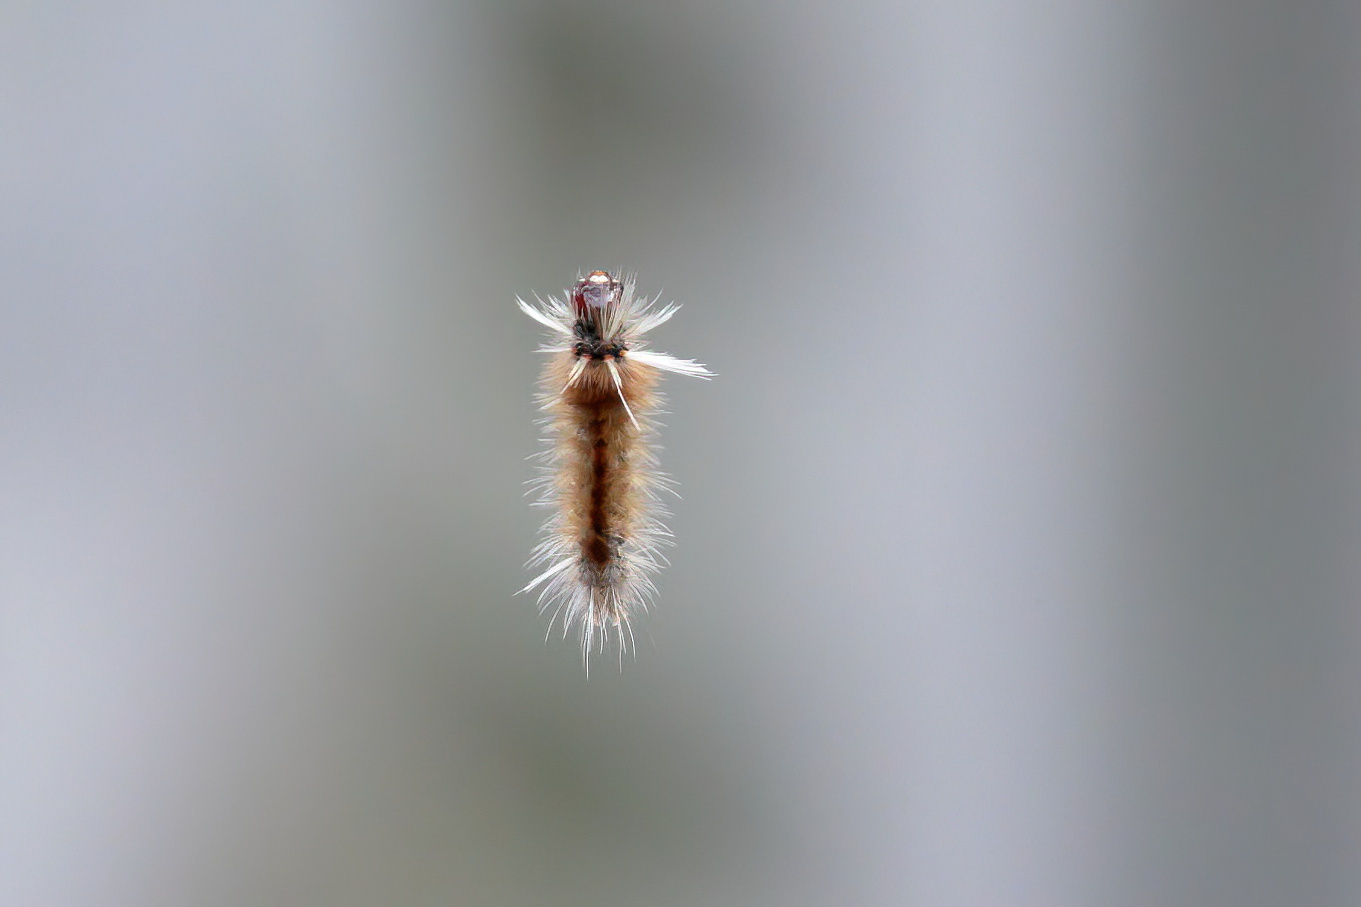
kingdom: Animalia
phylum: Arthropoda
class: Insecta
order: Lepidoptera
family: Erebidae
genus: Halysidota
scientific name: Halysidota schausi
